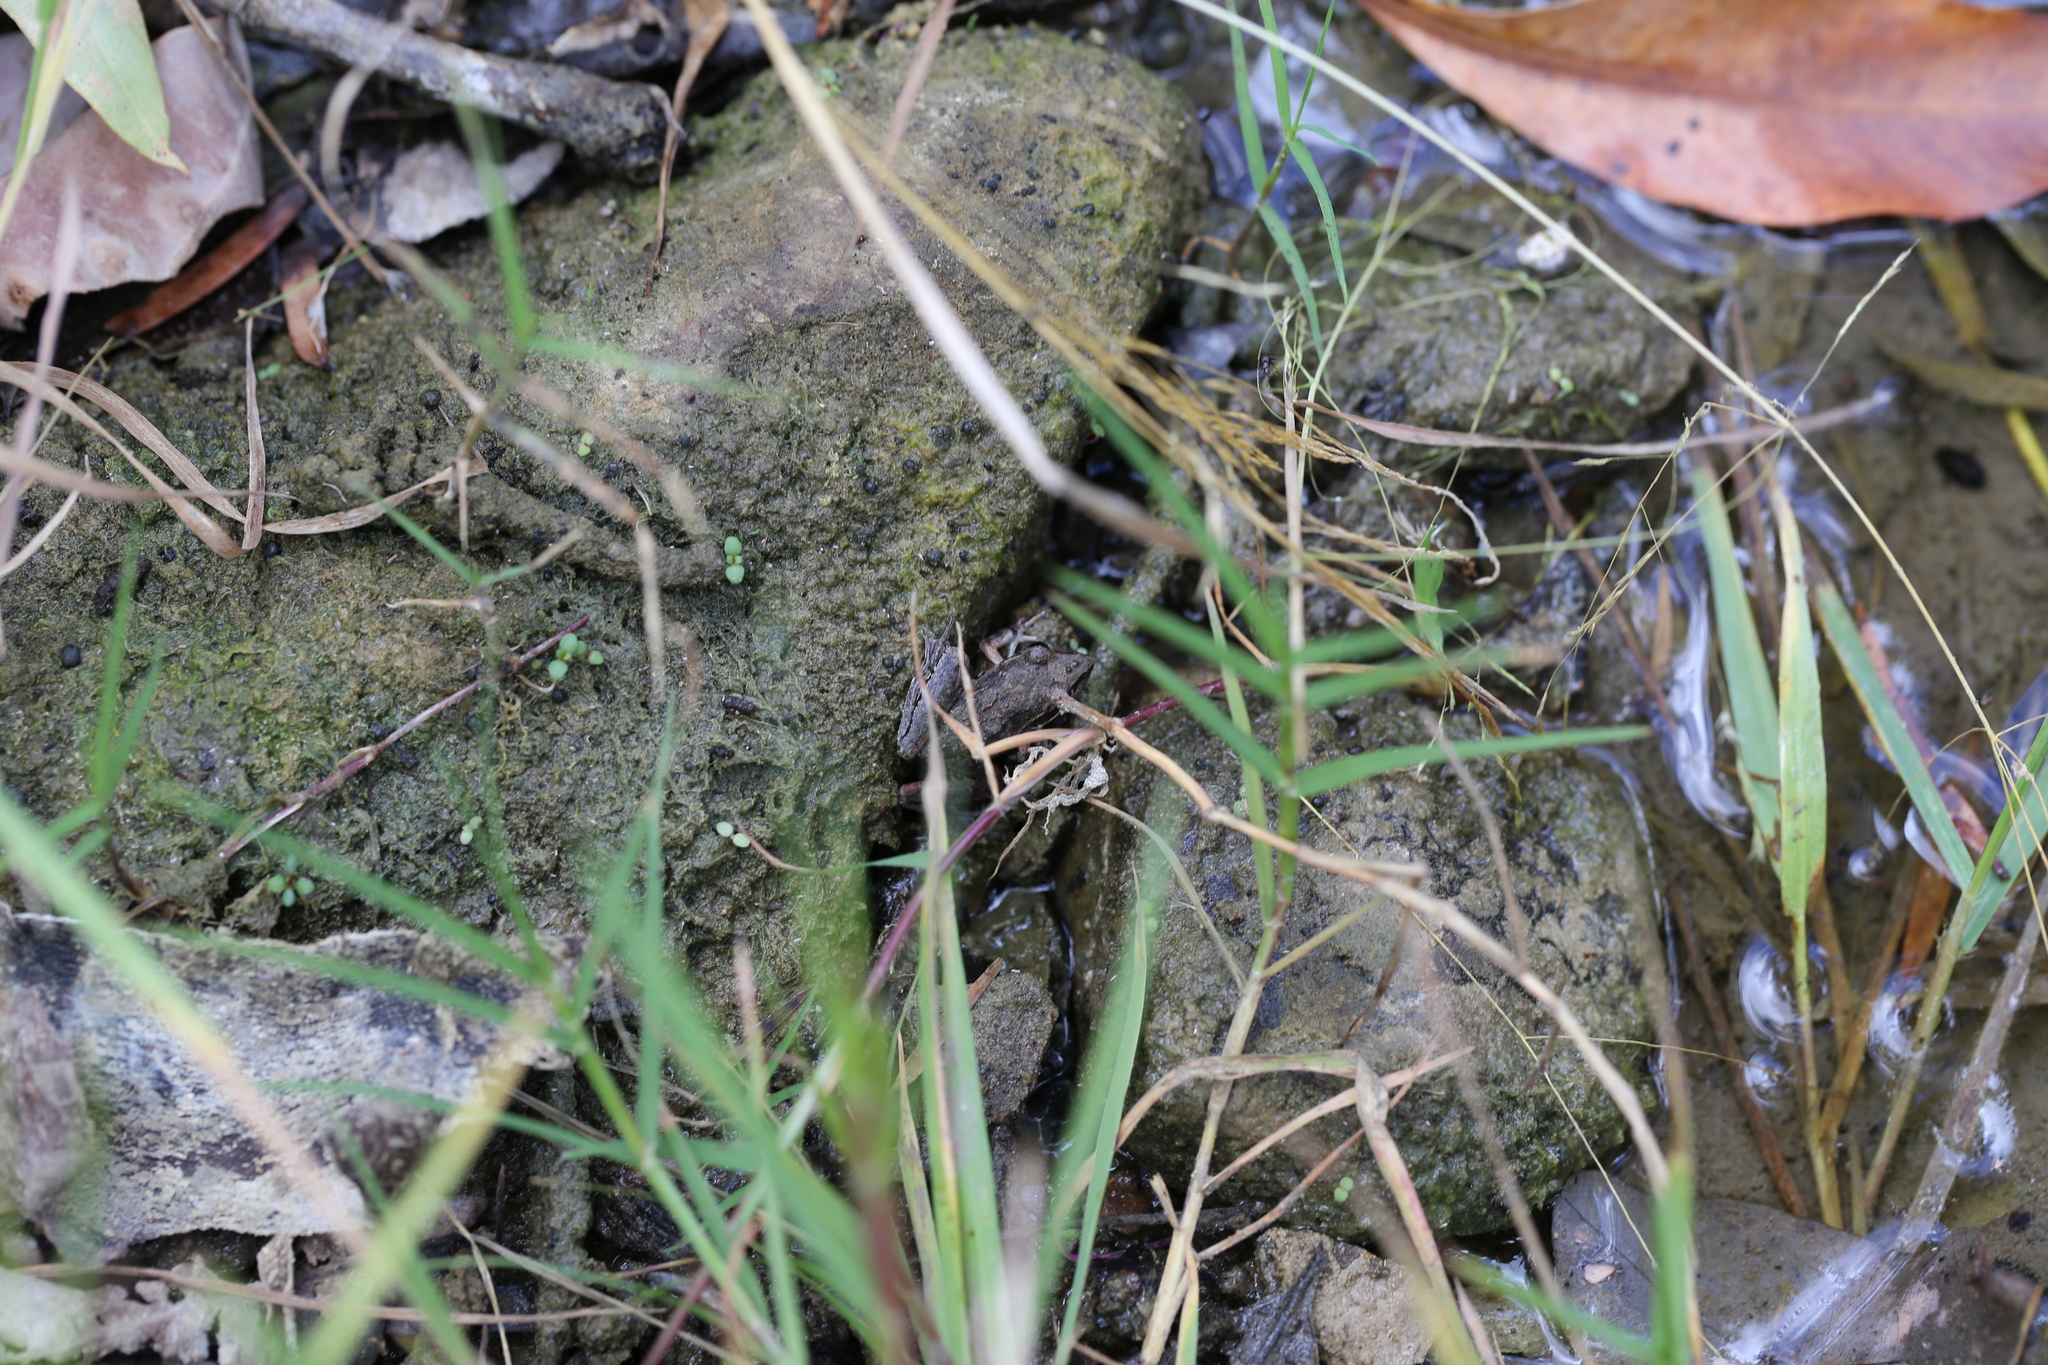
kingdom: Animalia
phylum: Chordata
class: Amphibia
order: Anura
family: Pelodryadidae
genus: Litoria
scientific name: Litoria latopalmata
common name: Broad-palmed rocket frog
